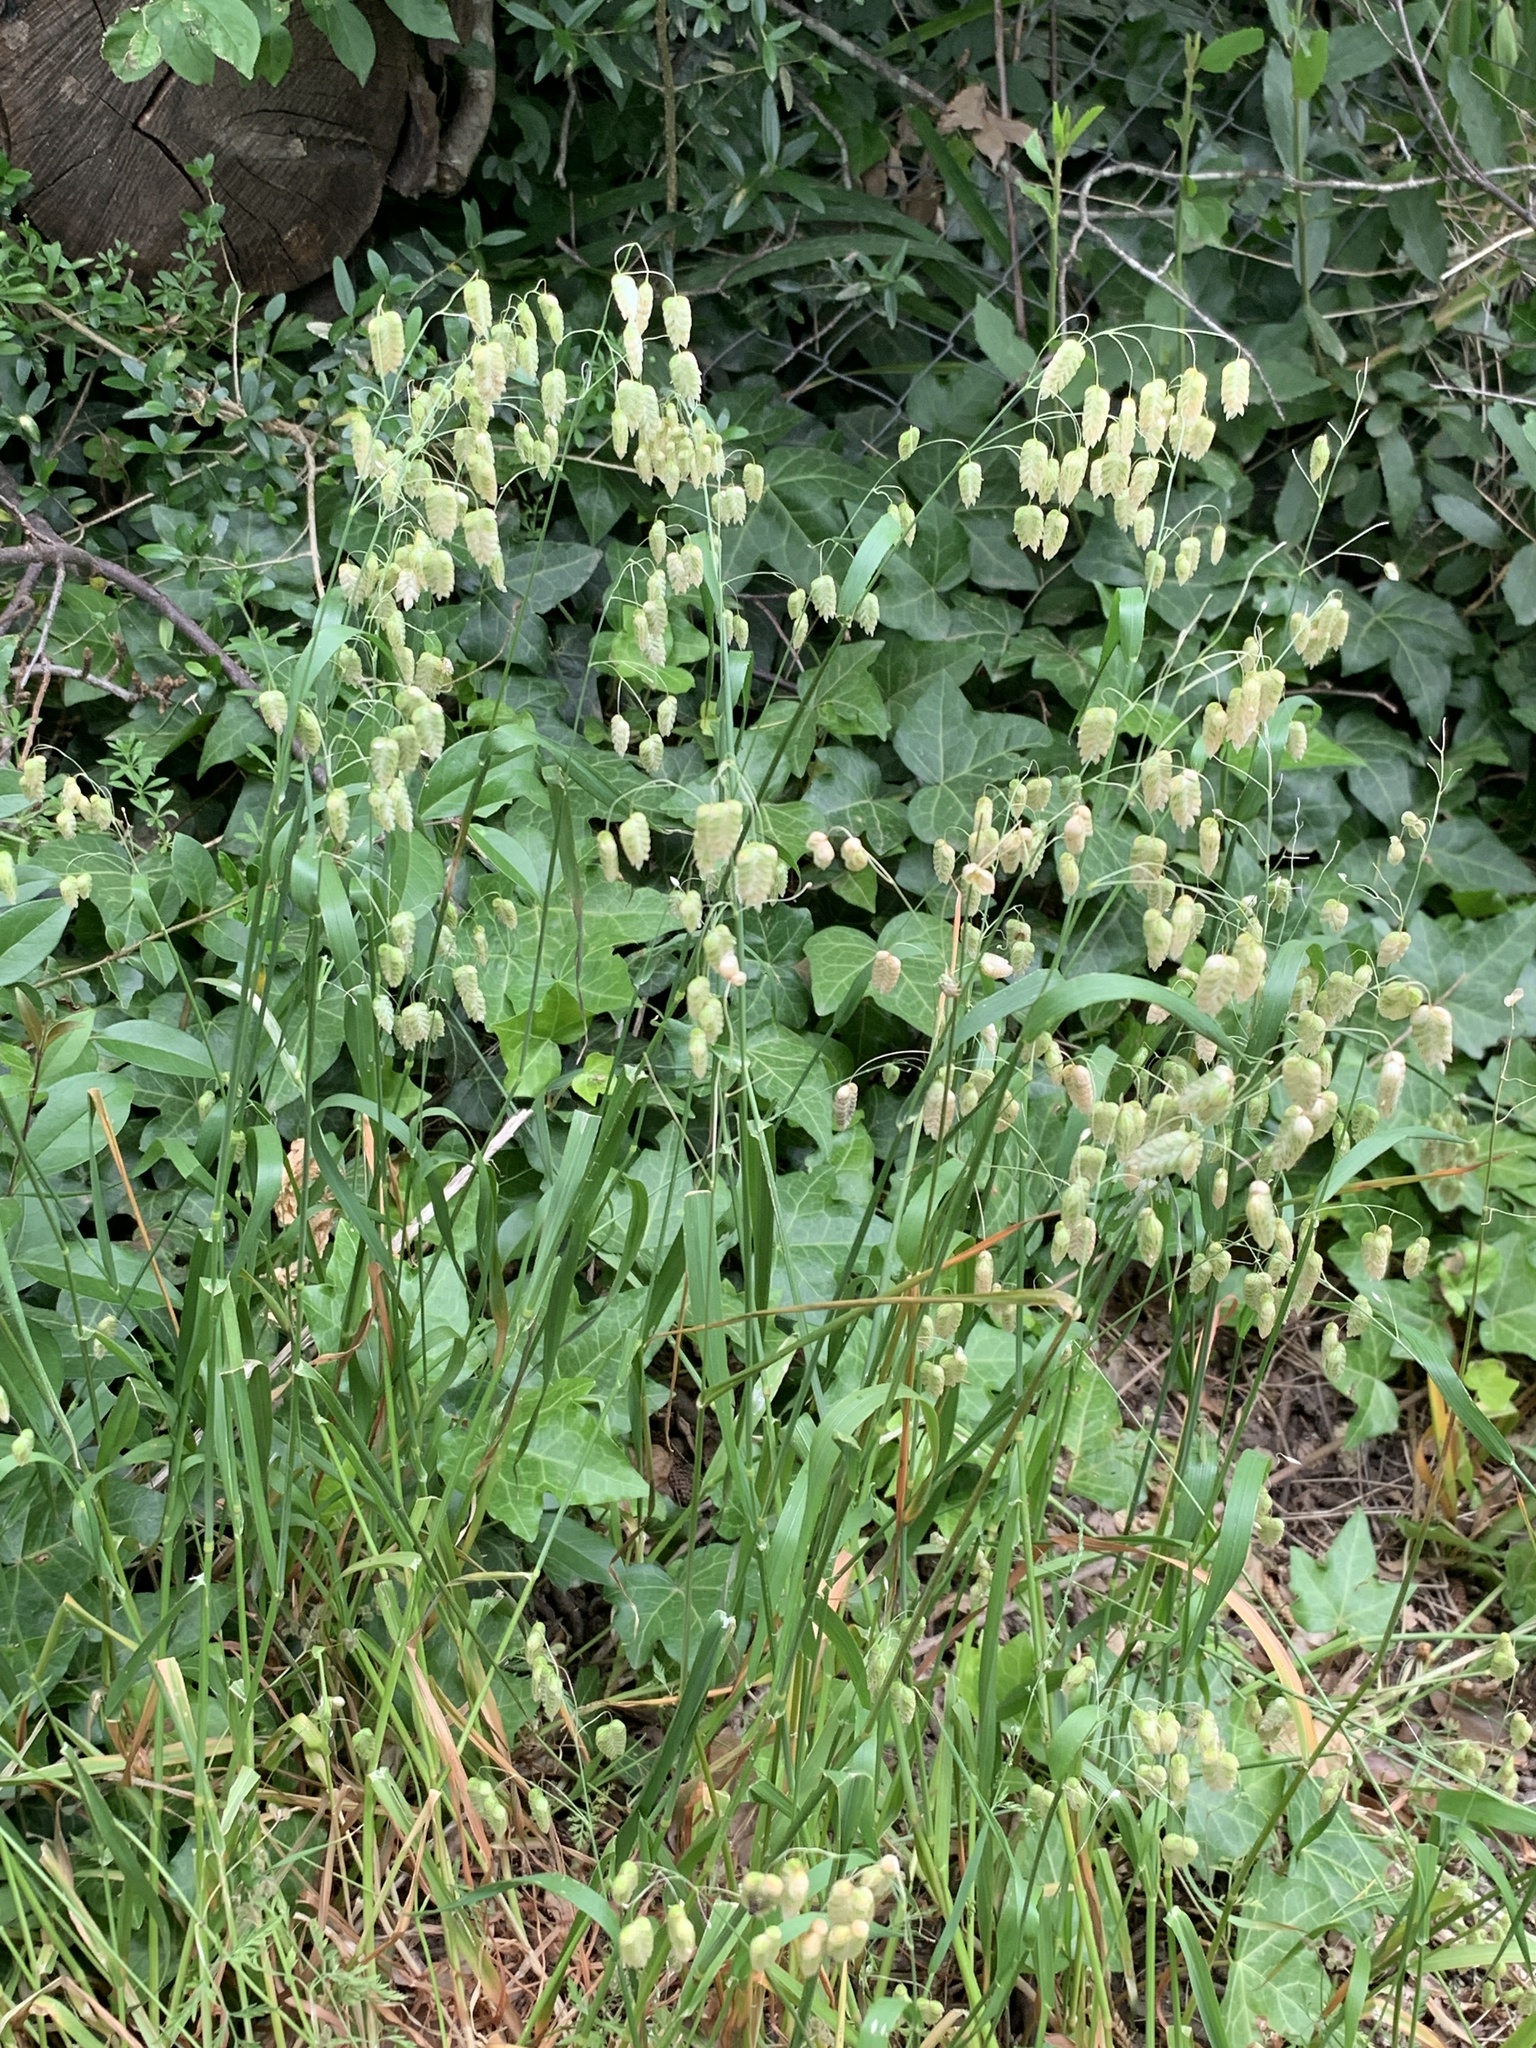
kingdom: Plantae
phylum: Tracheophyta
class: Liliopsida
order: Poales
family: Poaceae
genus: Briza
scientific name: Briza maxima
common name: Big quakinggrass
